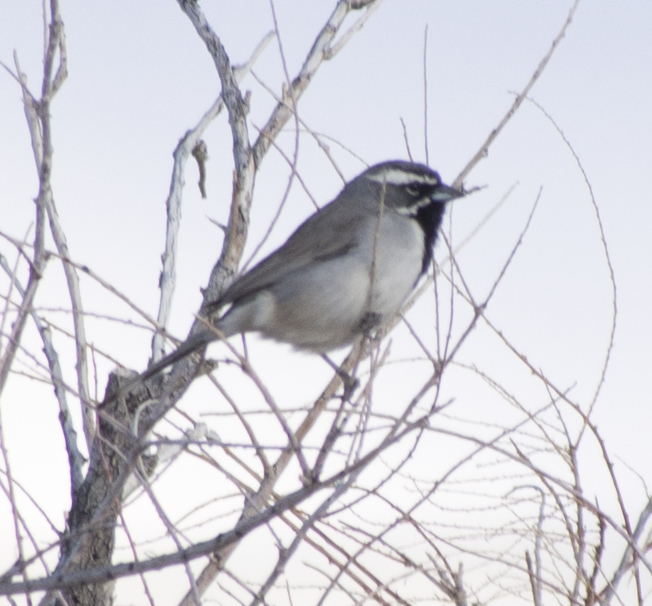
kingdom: Animalia
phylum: Chordata
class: Aves
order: Passeriformes
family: Passerellidae
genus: Amphispiza
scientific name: Amphispiza bilineata
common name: Black-throated sparrow
